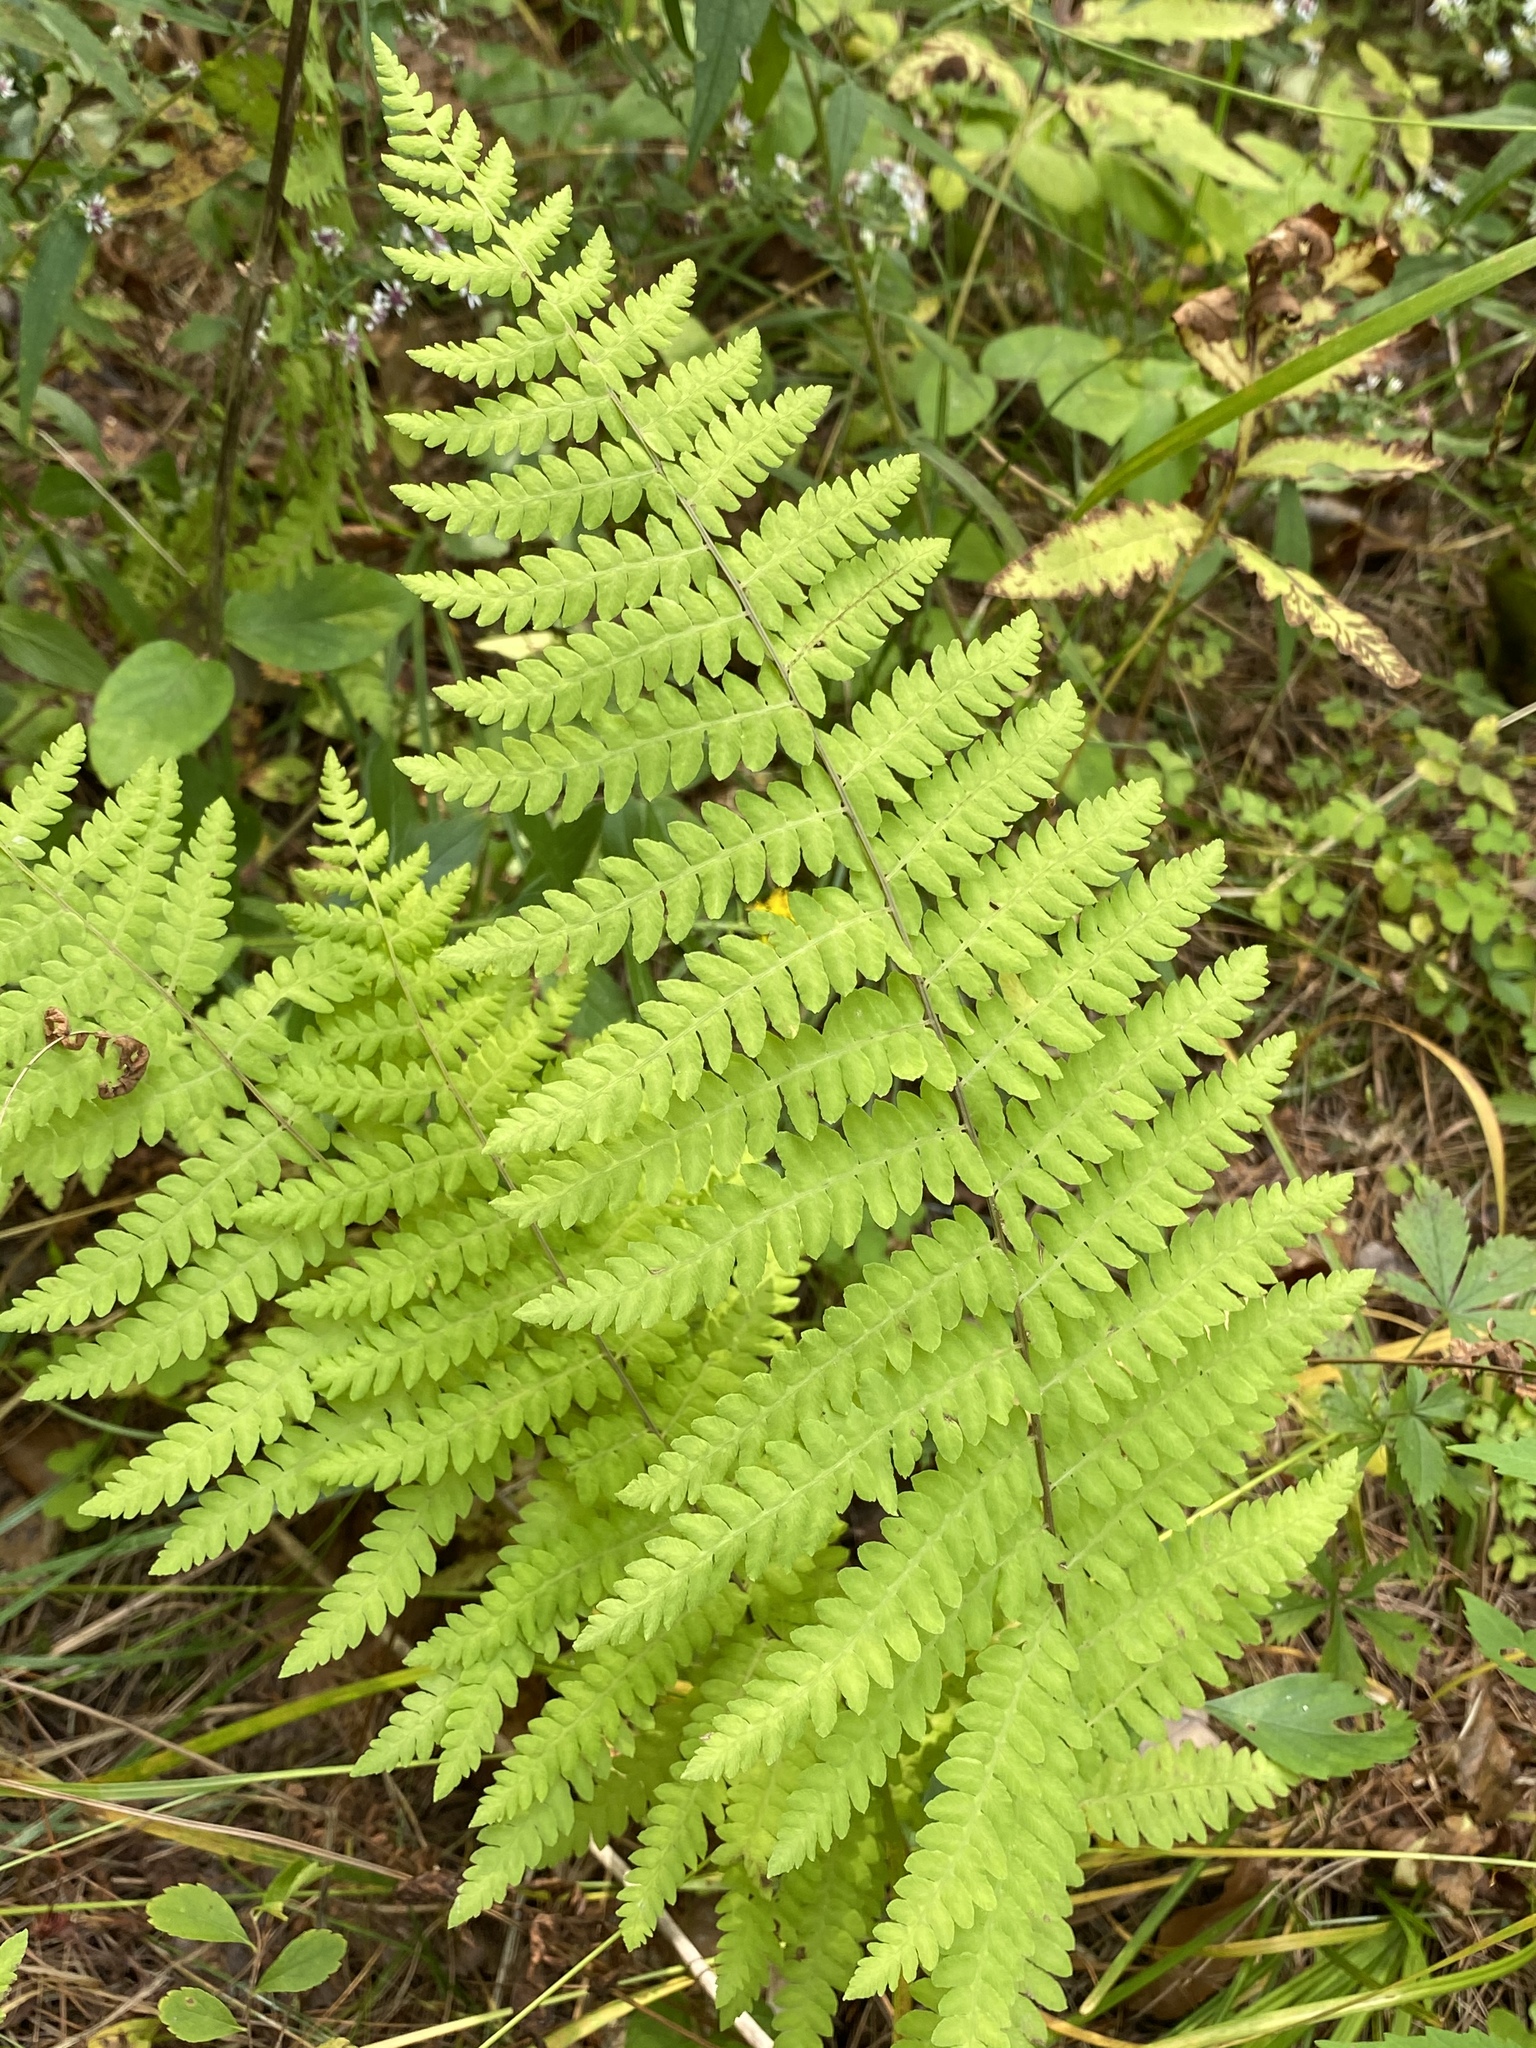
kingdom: Plantae
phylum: Tracheophyta
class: Polypodiopsida
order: Polypodiales
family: Thelypteridaceae
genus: Amauropelta
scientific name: Amauropelta noveboracensis
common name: New york fern
